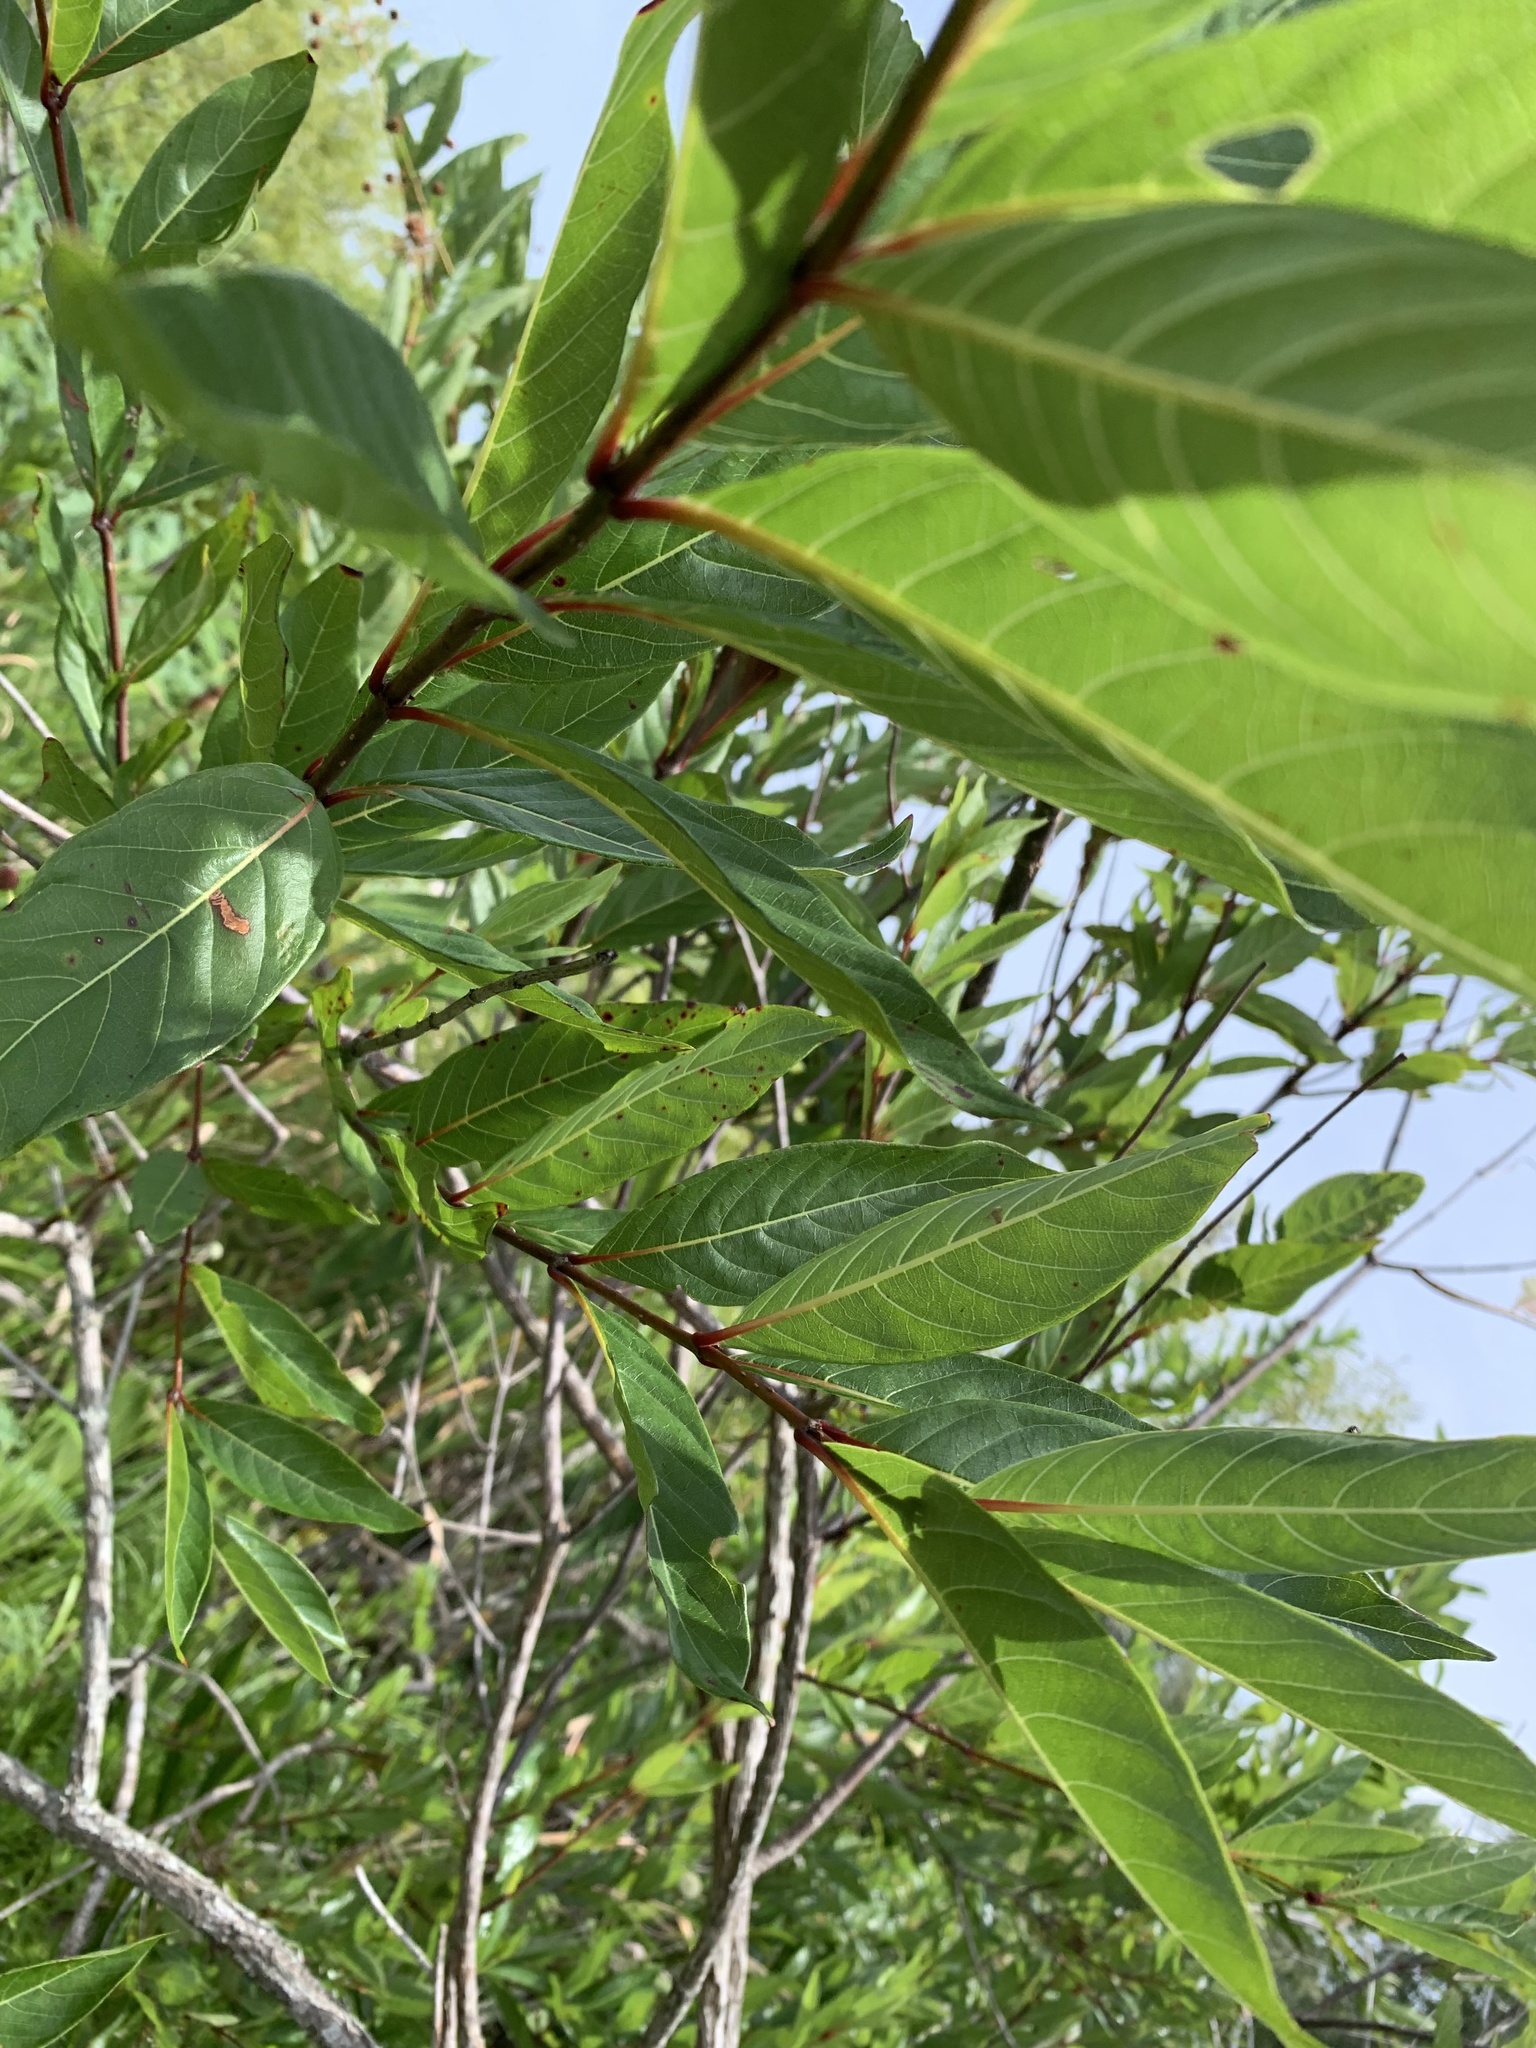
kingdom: Plantae
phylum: Tracheophyta
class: Magnoliopsida
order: Gentianales
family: Rubiaceae
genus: Cephalanthus
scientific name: Cephalanthus occidentalis
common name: Button-willow
